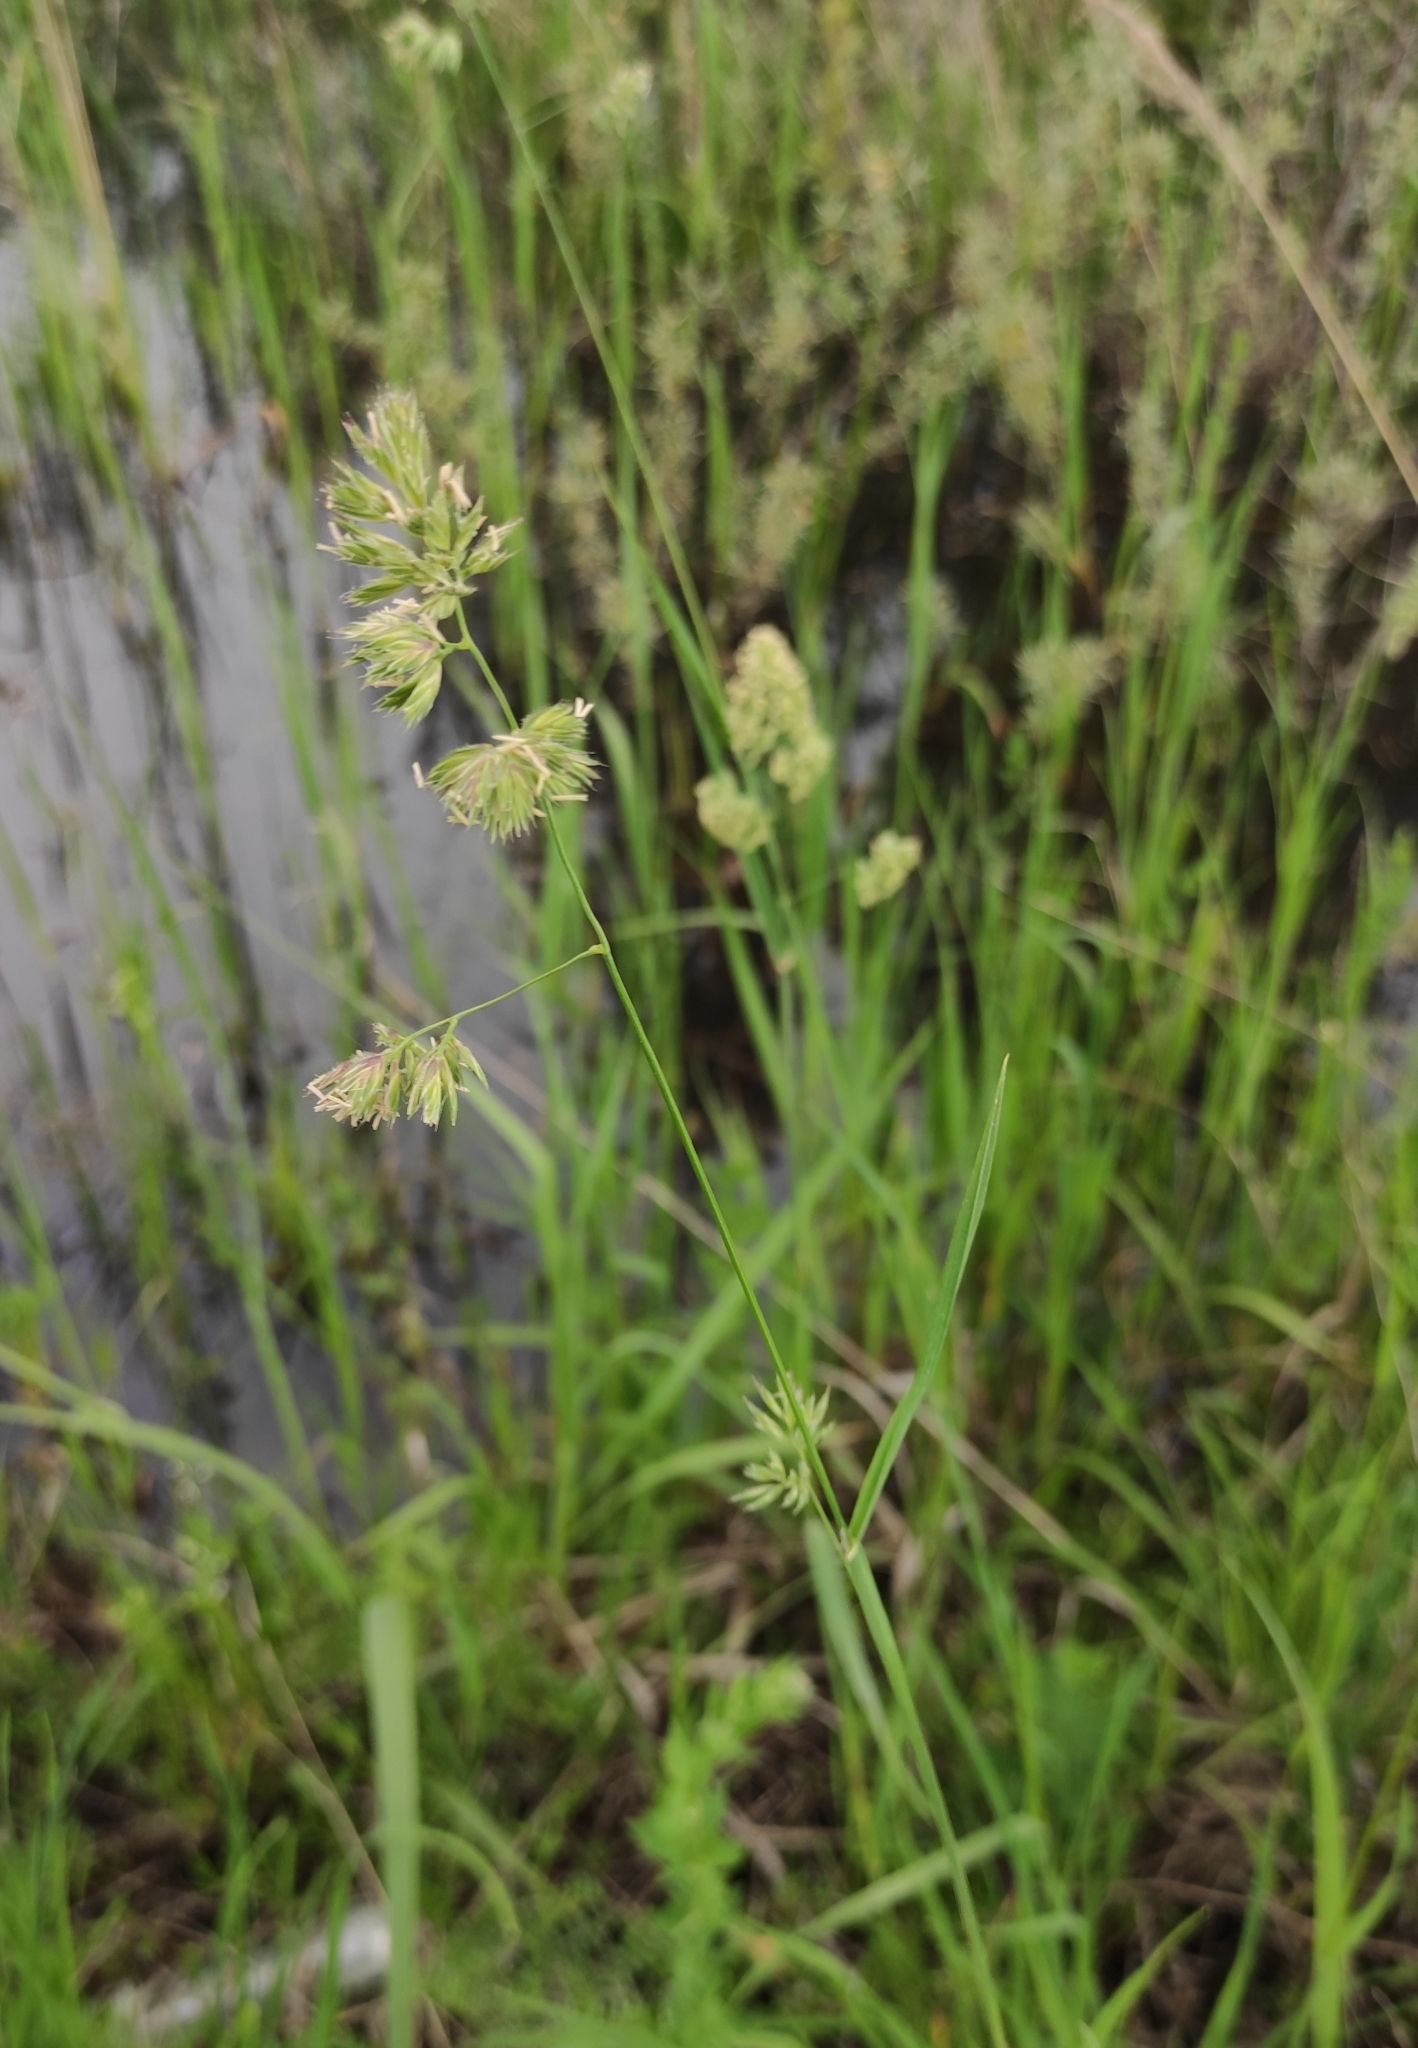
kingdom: Plantae
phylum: Tracheophyta
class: Liliopsida
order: Poales
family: Poaceae
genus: Dactylis
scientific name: Dactylis glomerata
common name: Orchardgrass
